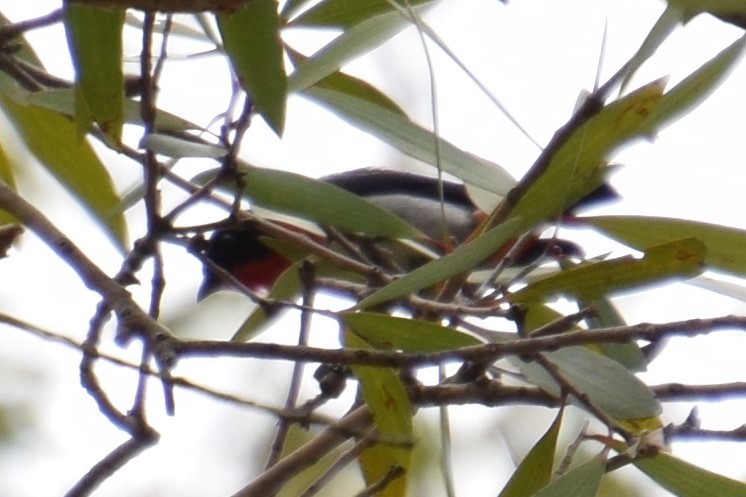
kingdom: Animalia
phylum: Chordata
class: Aves
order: Passeriformes
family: Dicaeidae
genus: Dicaeum
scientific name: Dicaeum hirundinaceum
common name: Mistletoebird
